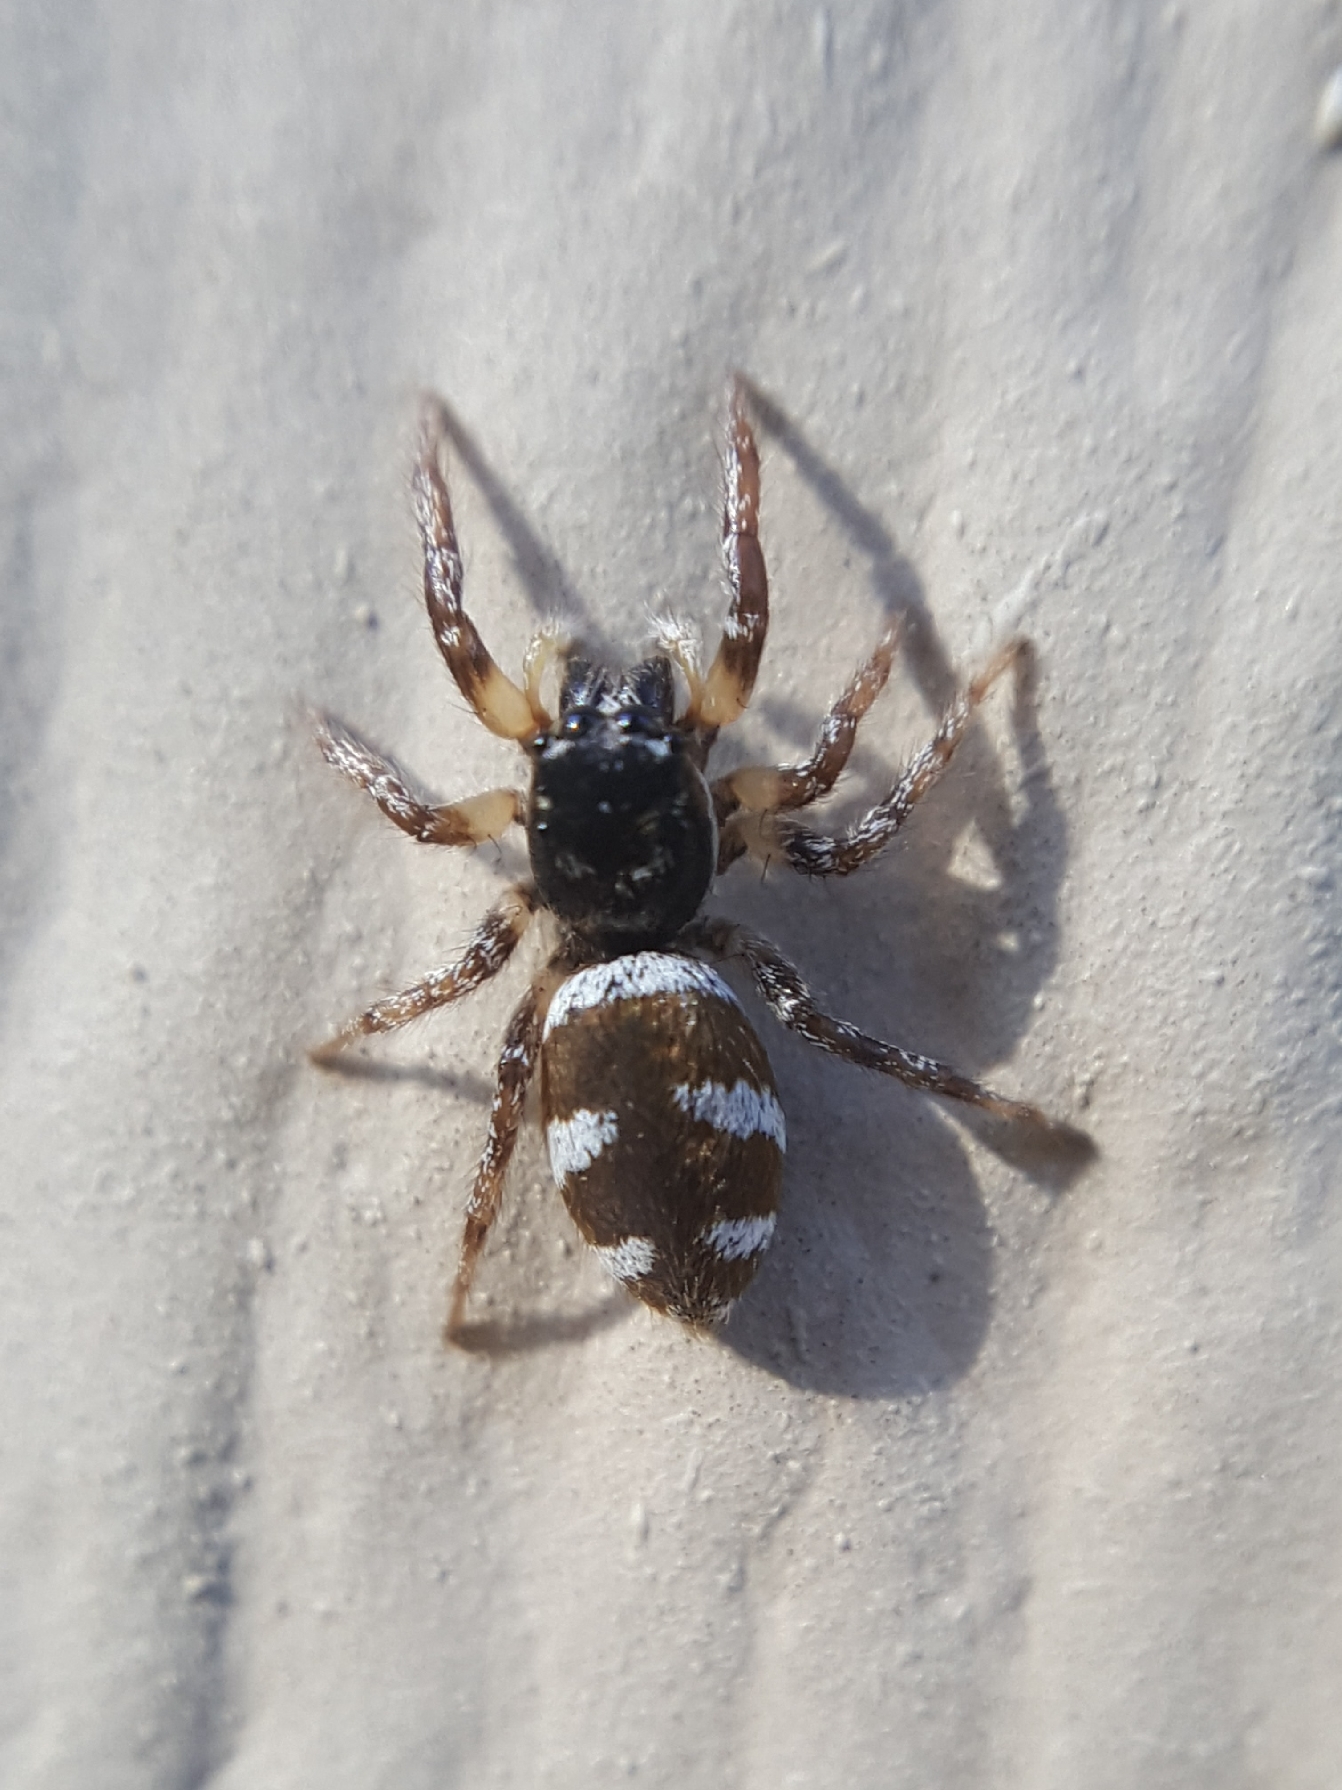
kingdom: Animalia
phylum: Arthropoda
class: Arachnida
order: Araneae
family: Salticidae
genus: Salticus
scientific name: Salticus scenicus
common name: Zebra jumper
